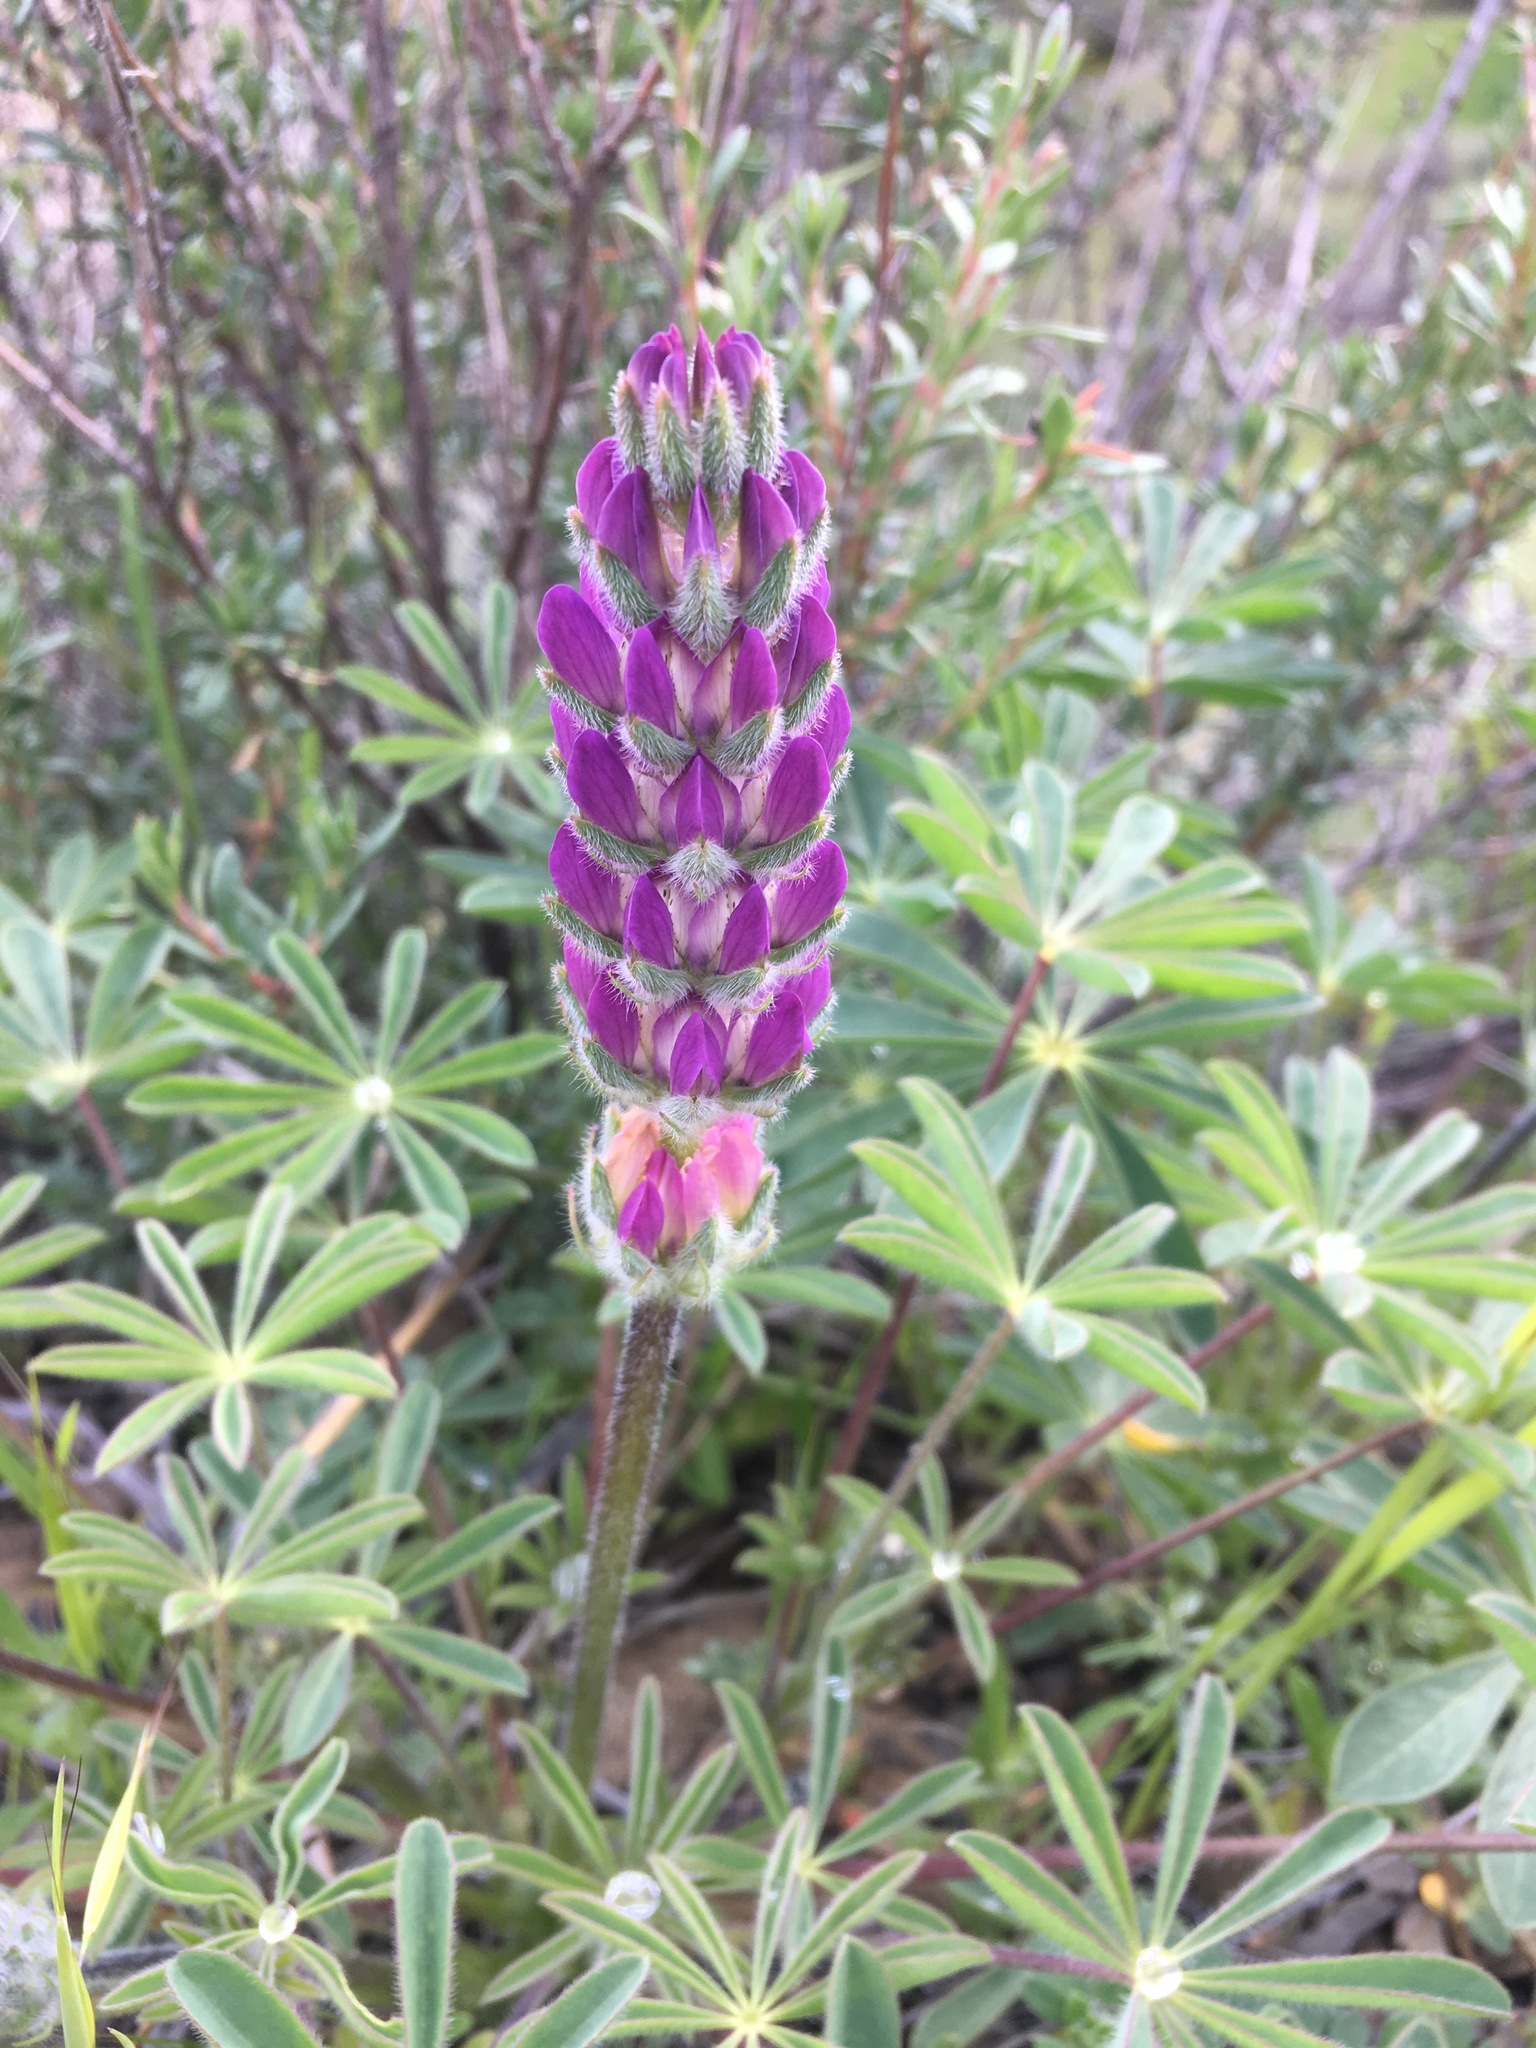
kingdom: Plantae
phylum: Tracheophyta
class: Magnoliopsida
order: Fabales
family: Fabaceae
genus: Lupinus
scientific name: Lupinus microcarpus
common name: Chick lupine
